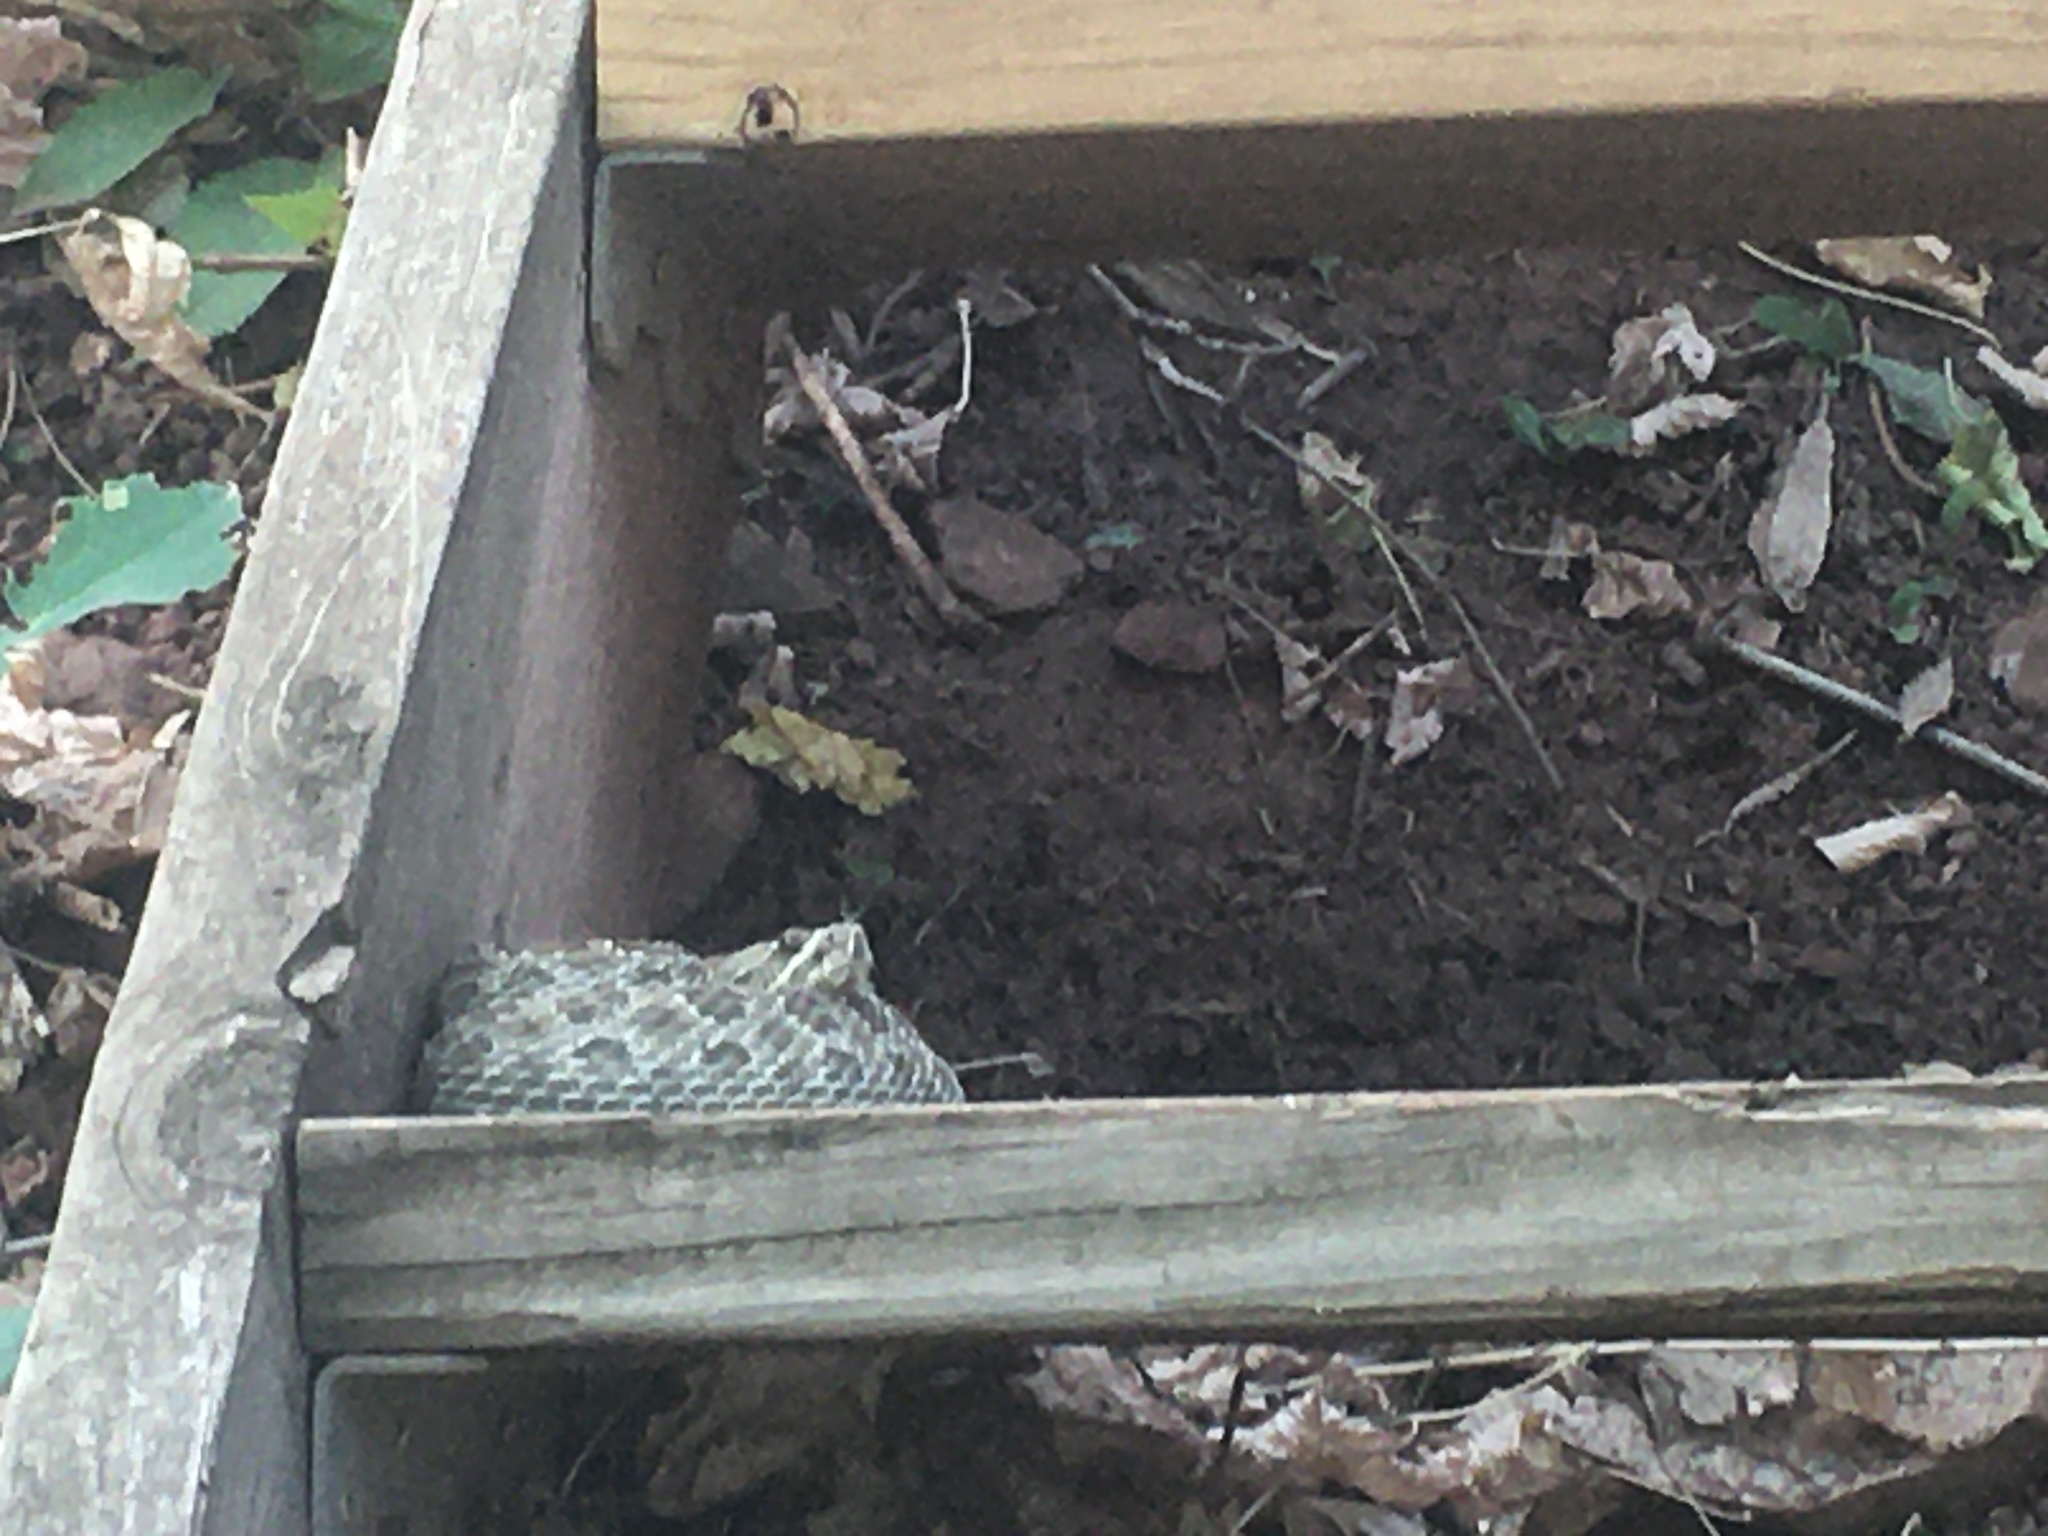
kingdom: Animalia
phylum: Chordata
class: Squamata
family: Viperidae
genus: Crotalus
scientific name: Crotalus viridis
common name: Prairie rattlesnake
